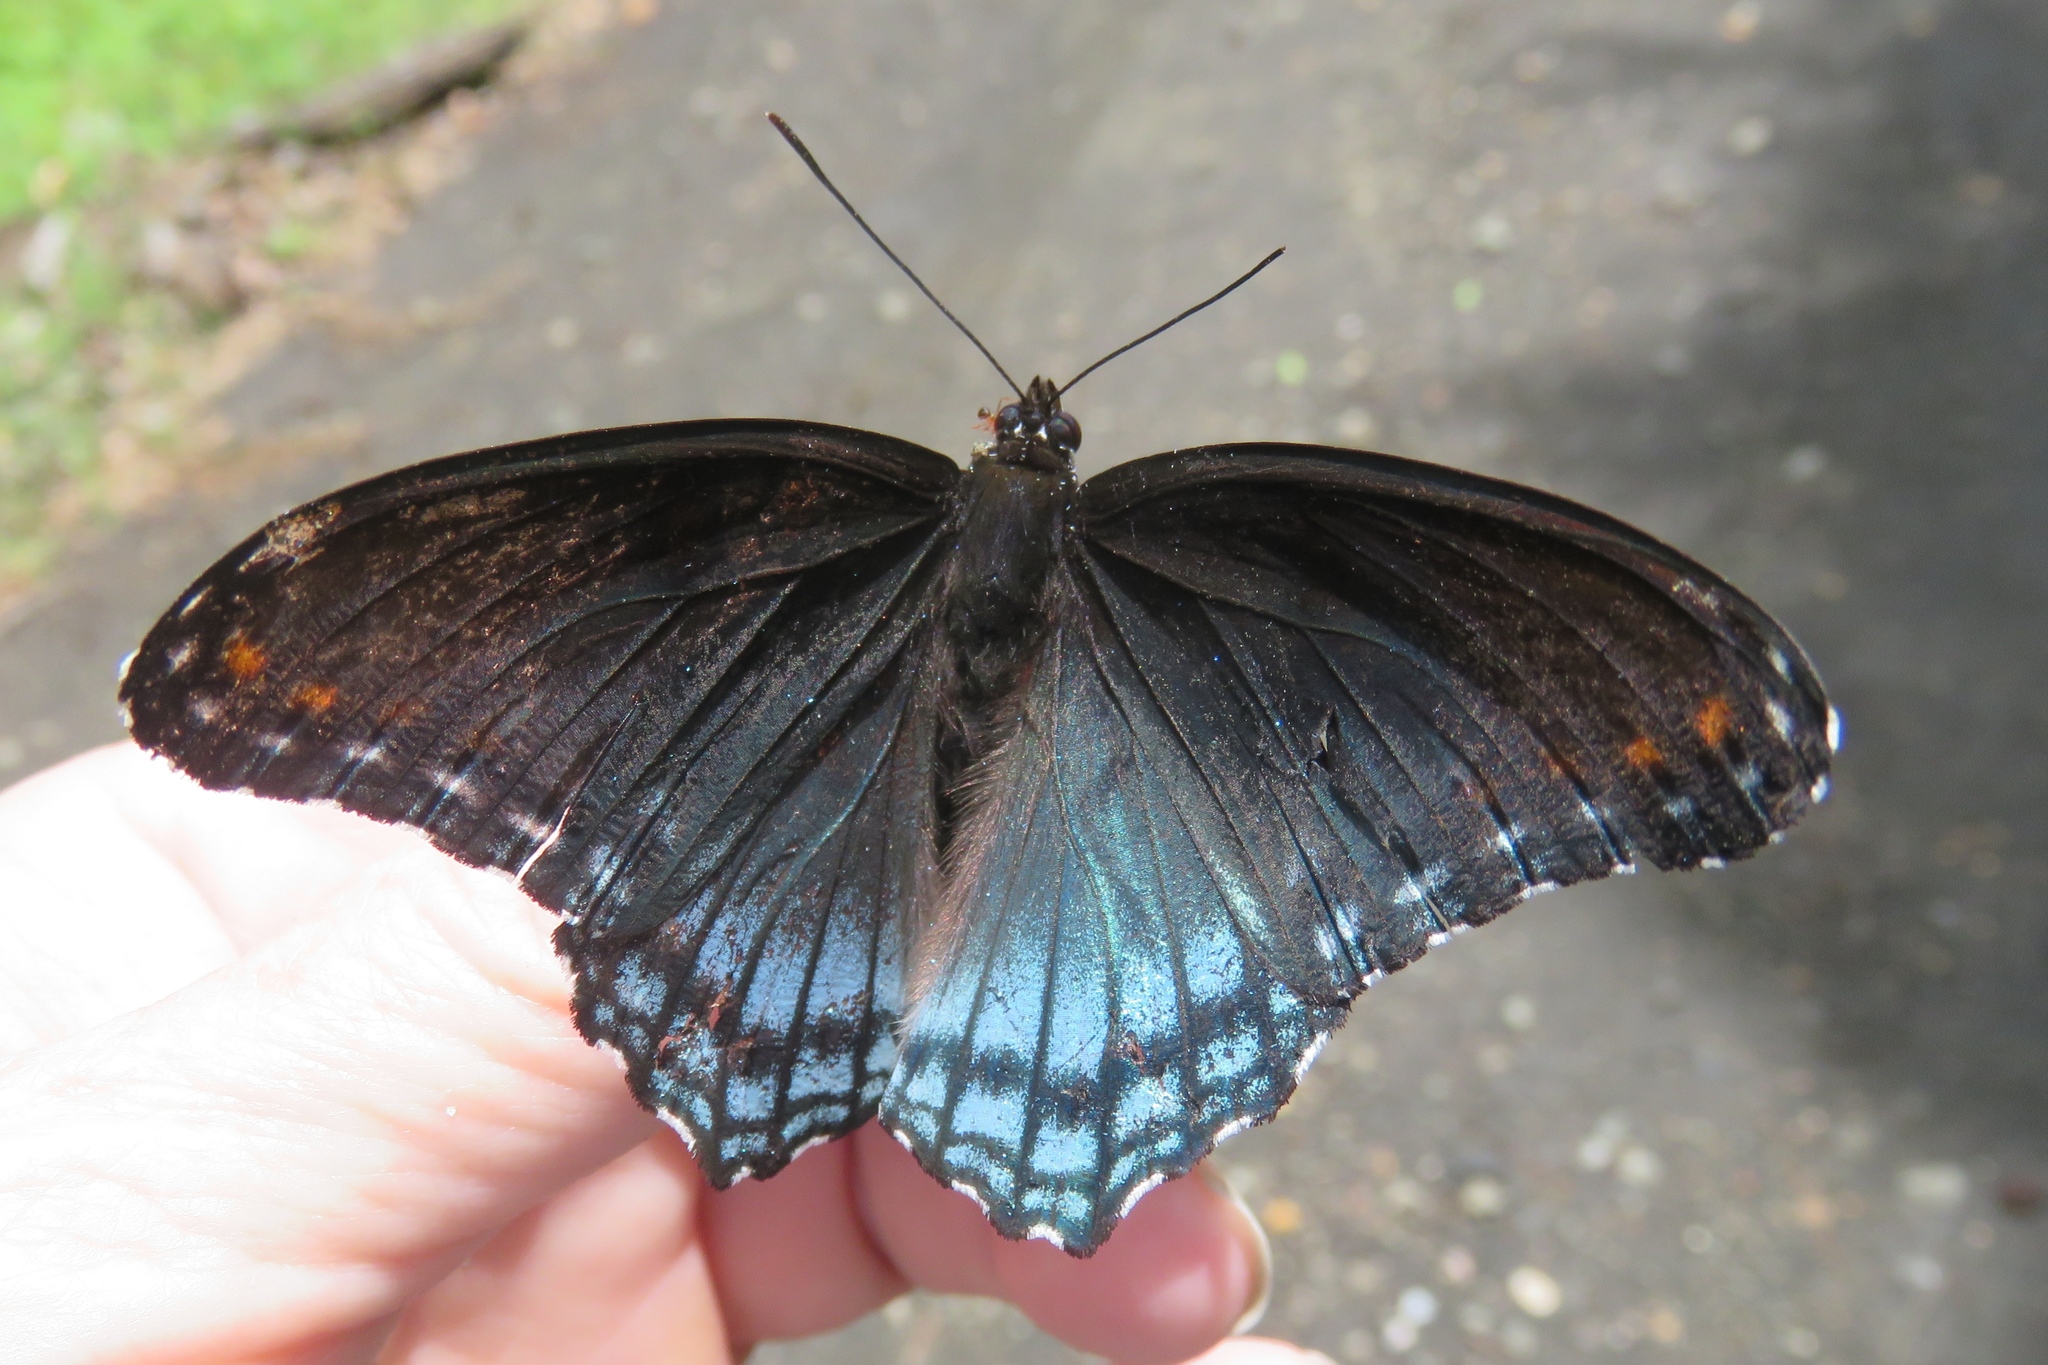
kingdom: Animalia
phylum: Arthropoda
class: Insecta
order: Lepidoptera
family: Nymphalidae
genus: Limenitis
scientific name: Limenitis astyanax
